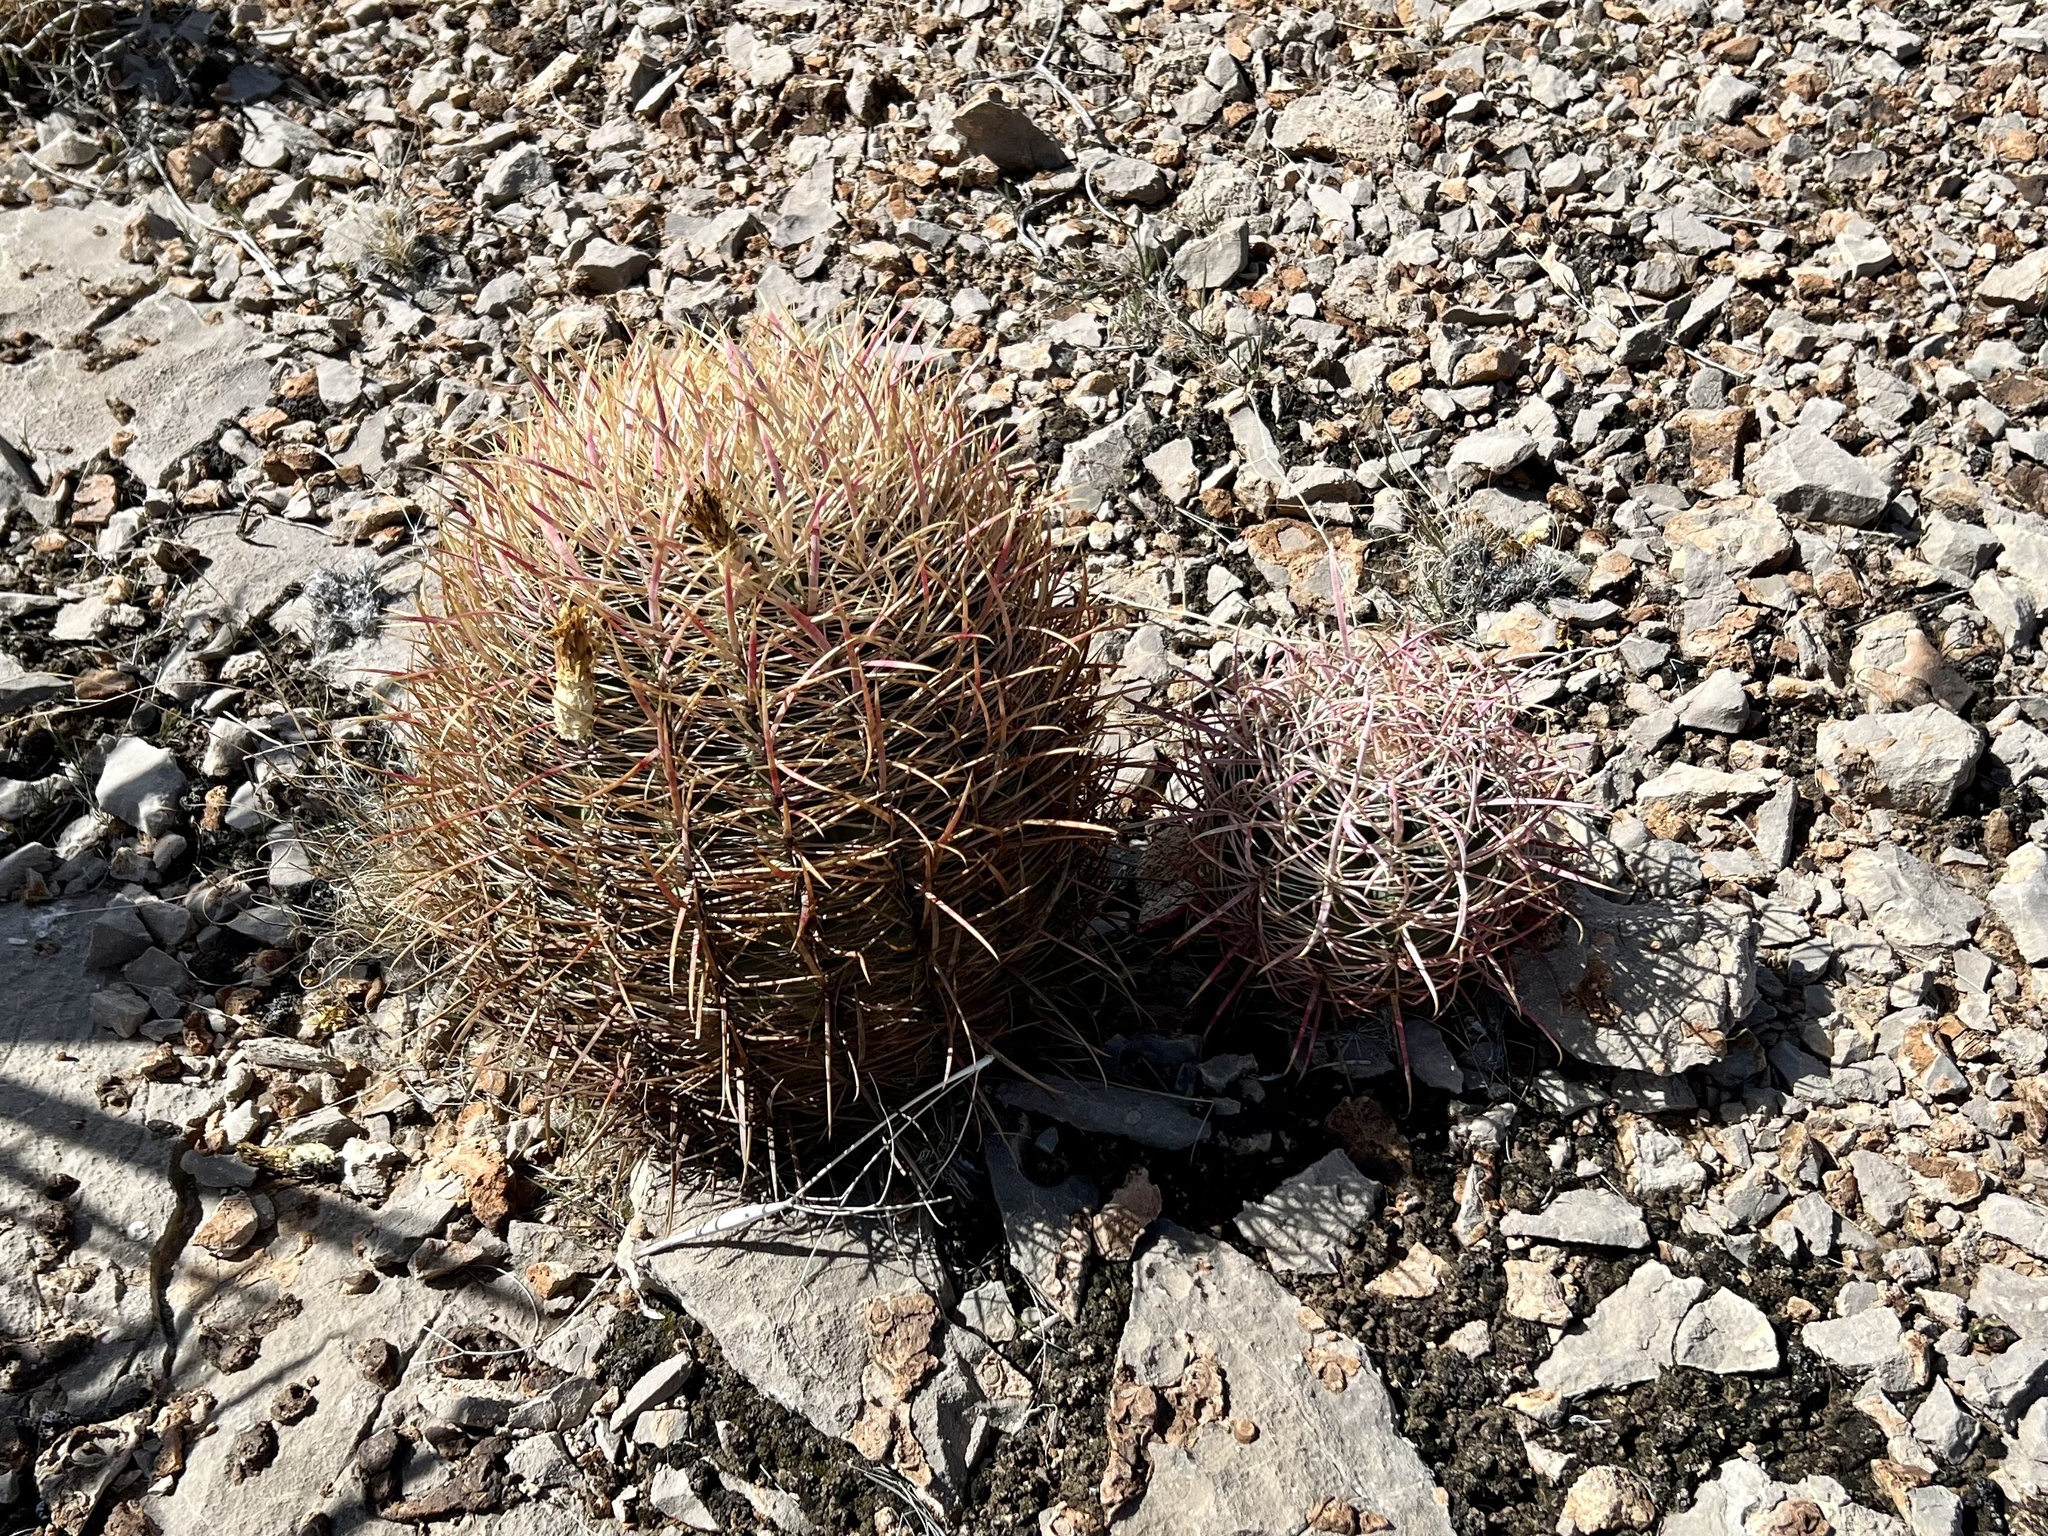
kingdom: Plantae
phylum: Tracheophyta
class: Magnoliopsida
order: Caryophyllales
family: Cactaceae
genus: Ferocactus
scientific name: Ferocactus cylindraceus
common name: California barrel cactus
